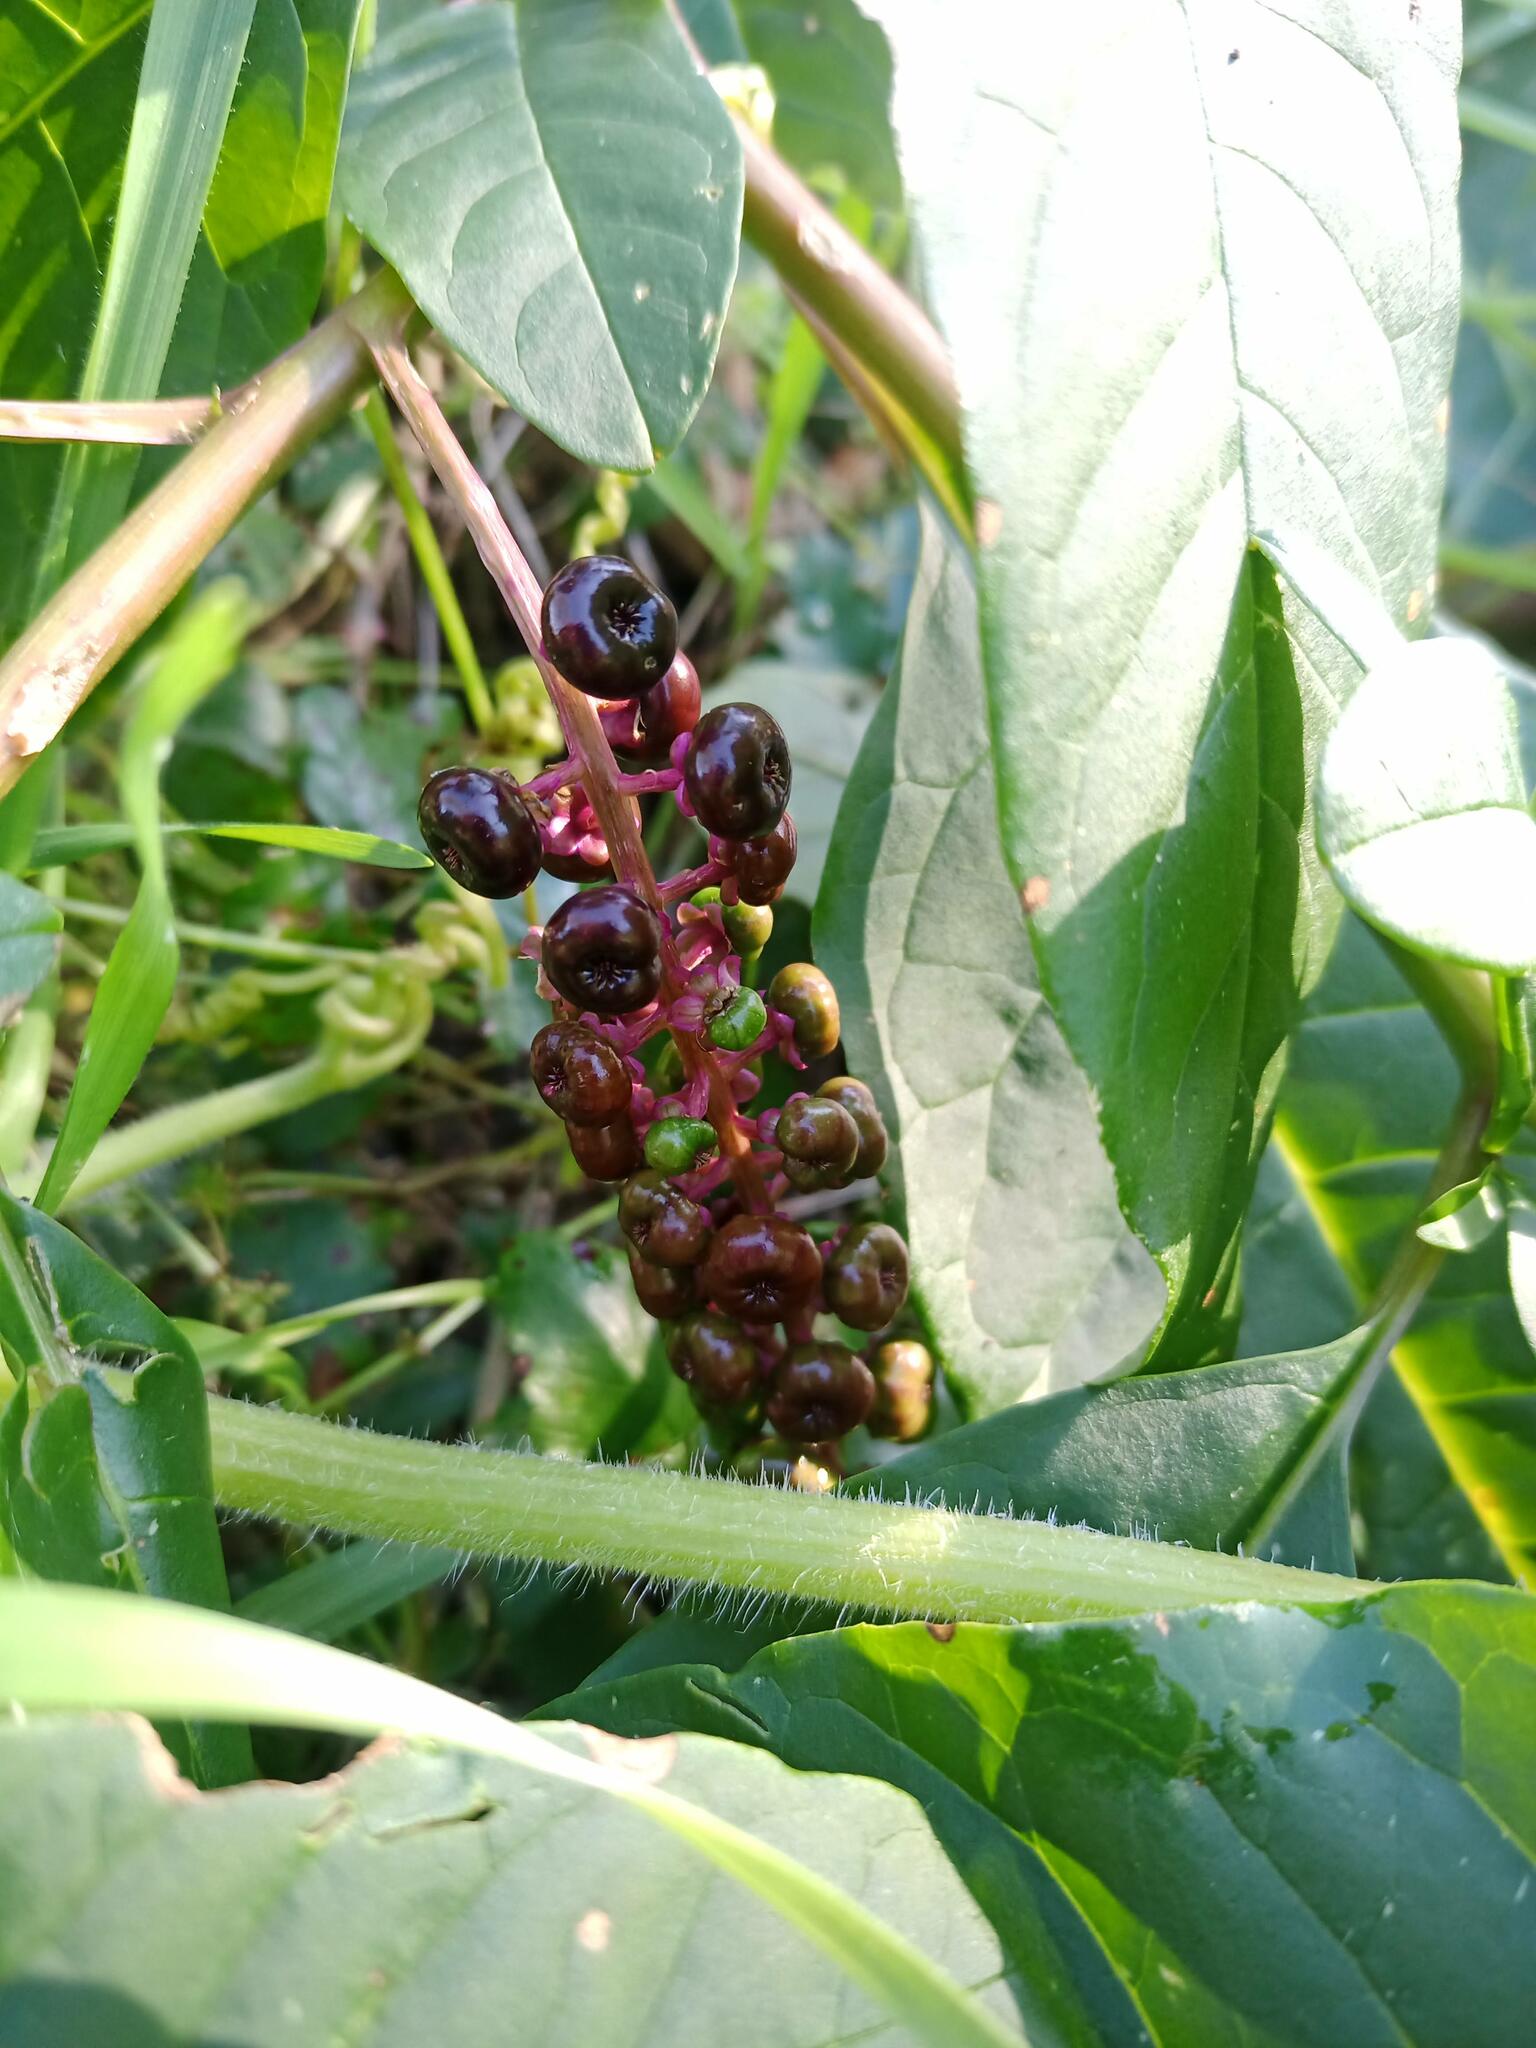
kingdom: Plantae
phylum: Tracheophyta
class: Magnoliopsida
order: Caryophyllales
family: Phytolaccaceae
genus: Phytolacca
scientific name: Phytolacca americana
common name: American pokeweed
